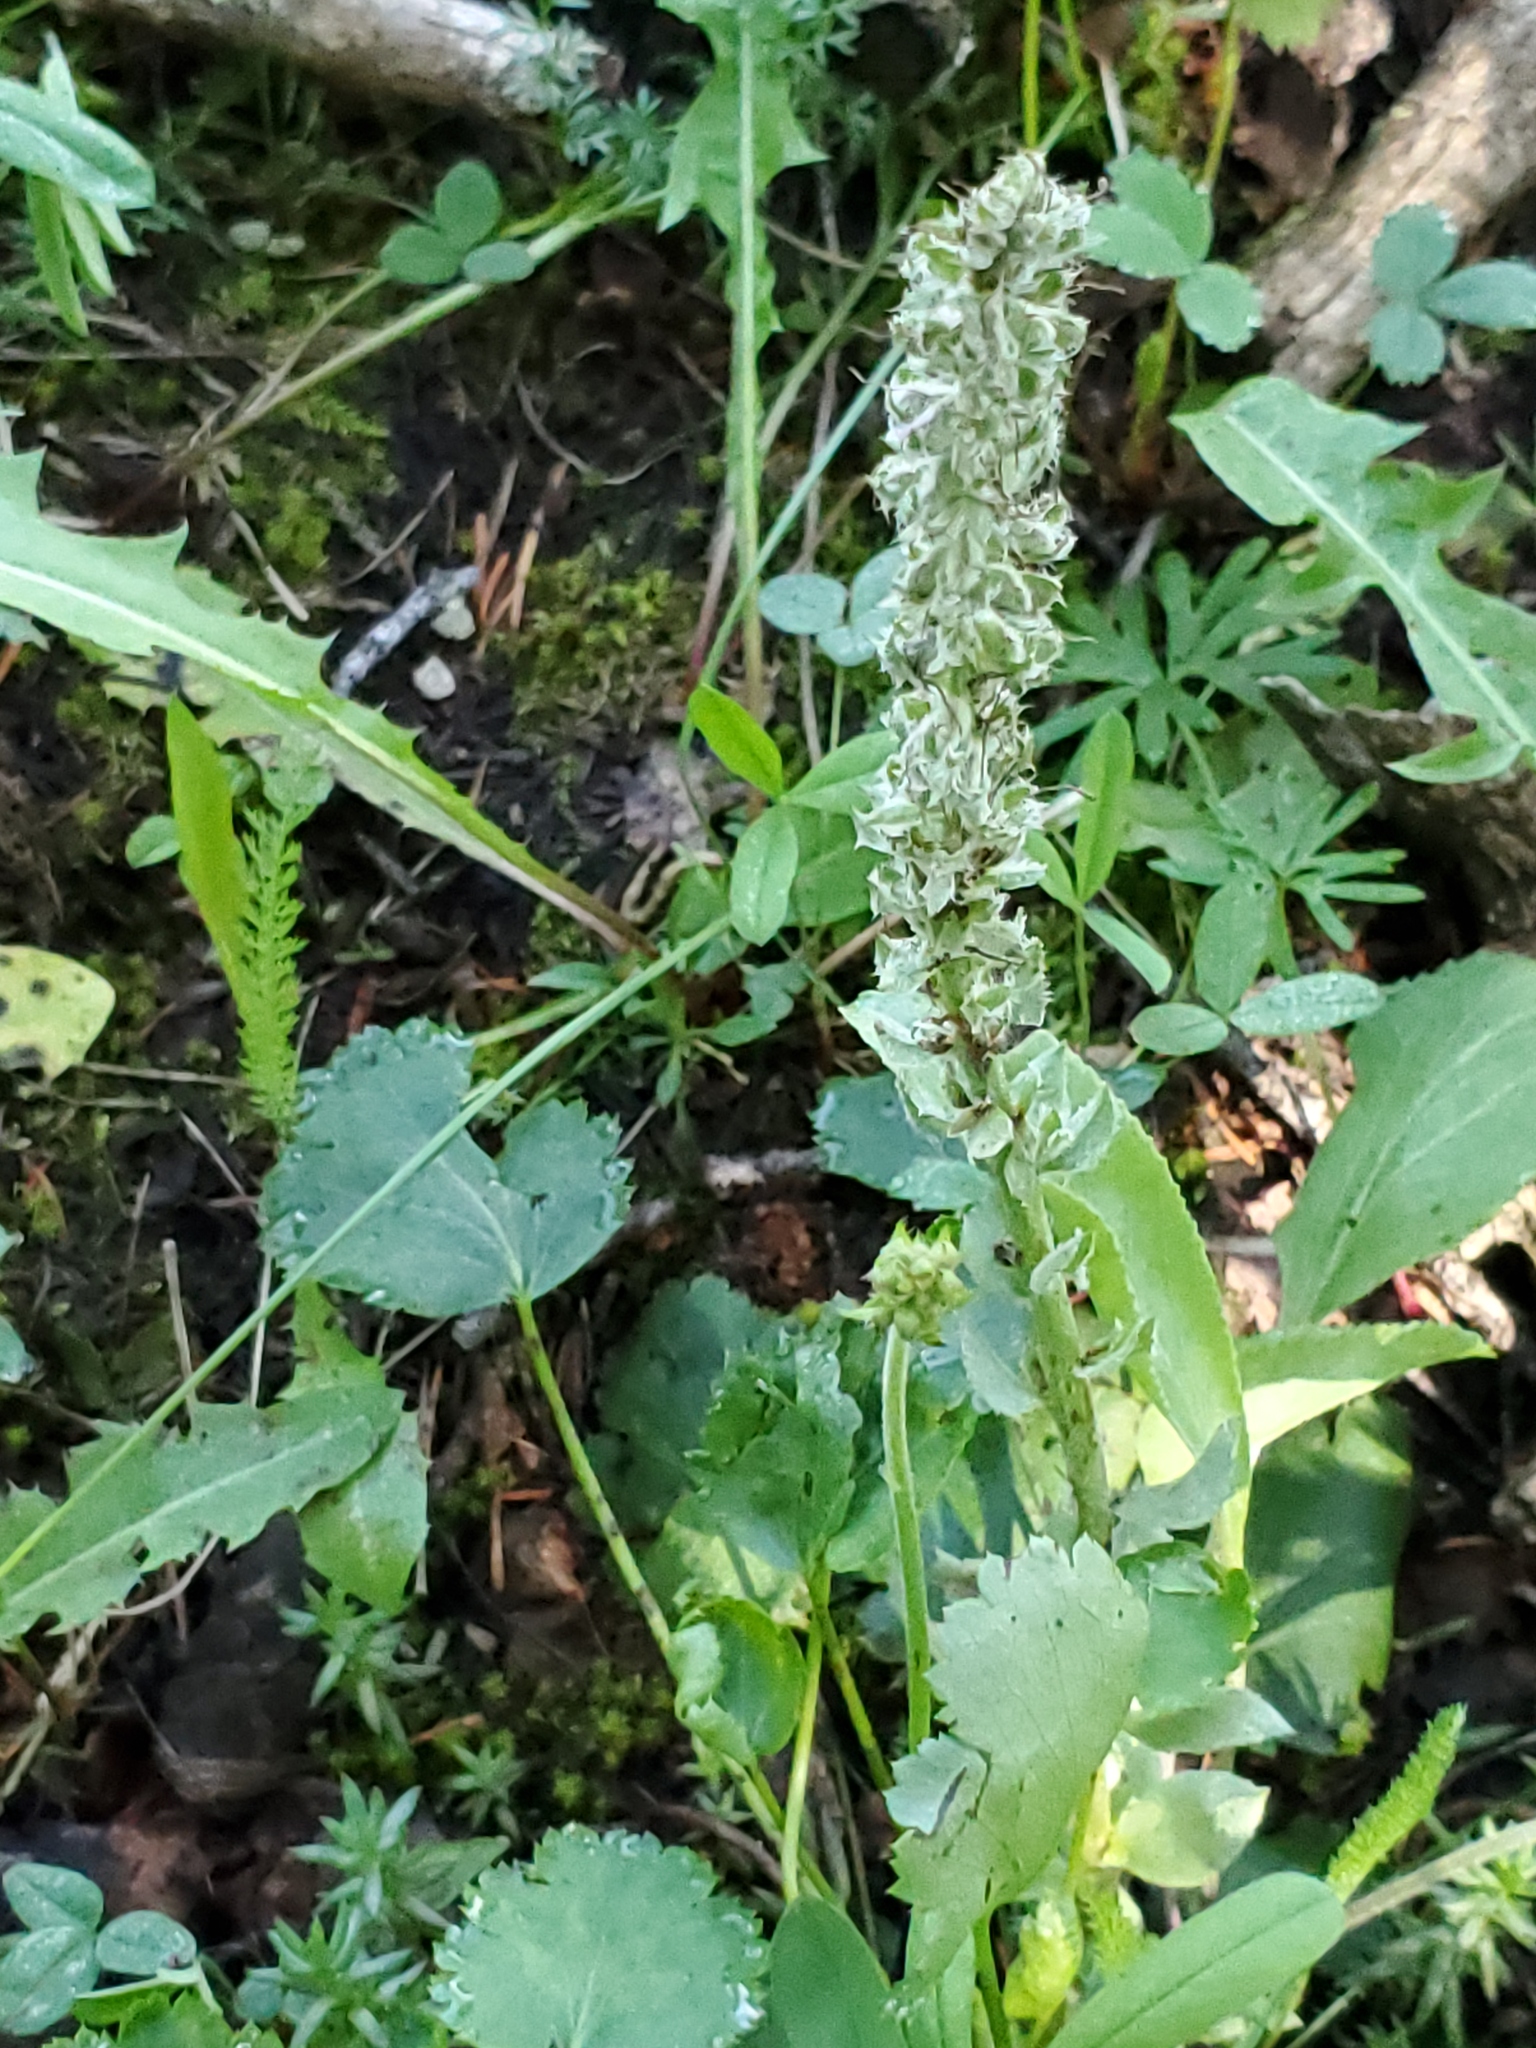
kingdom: Plantae
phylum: Tracheophyta
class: Magnoliopsida
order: Lamiales
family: Plantaginaceae
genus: Synthyris
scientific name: Synthyris wyomingensis
